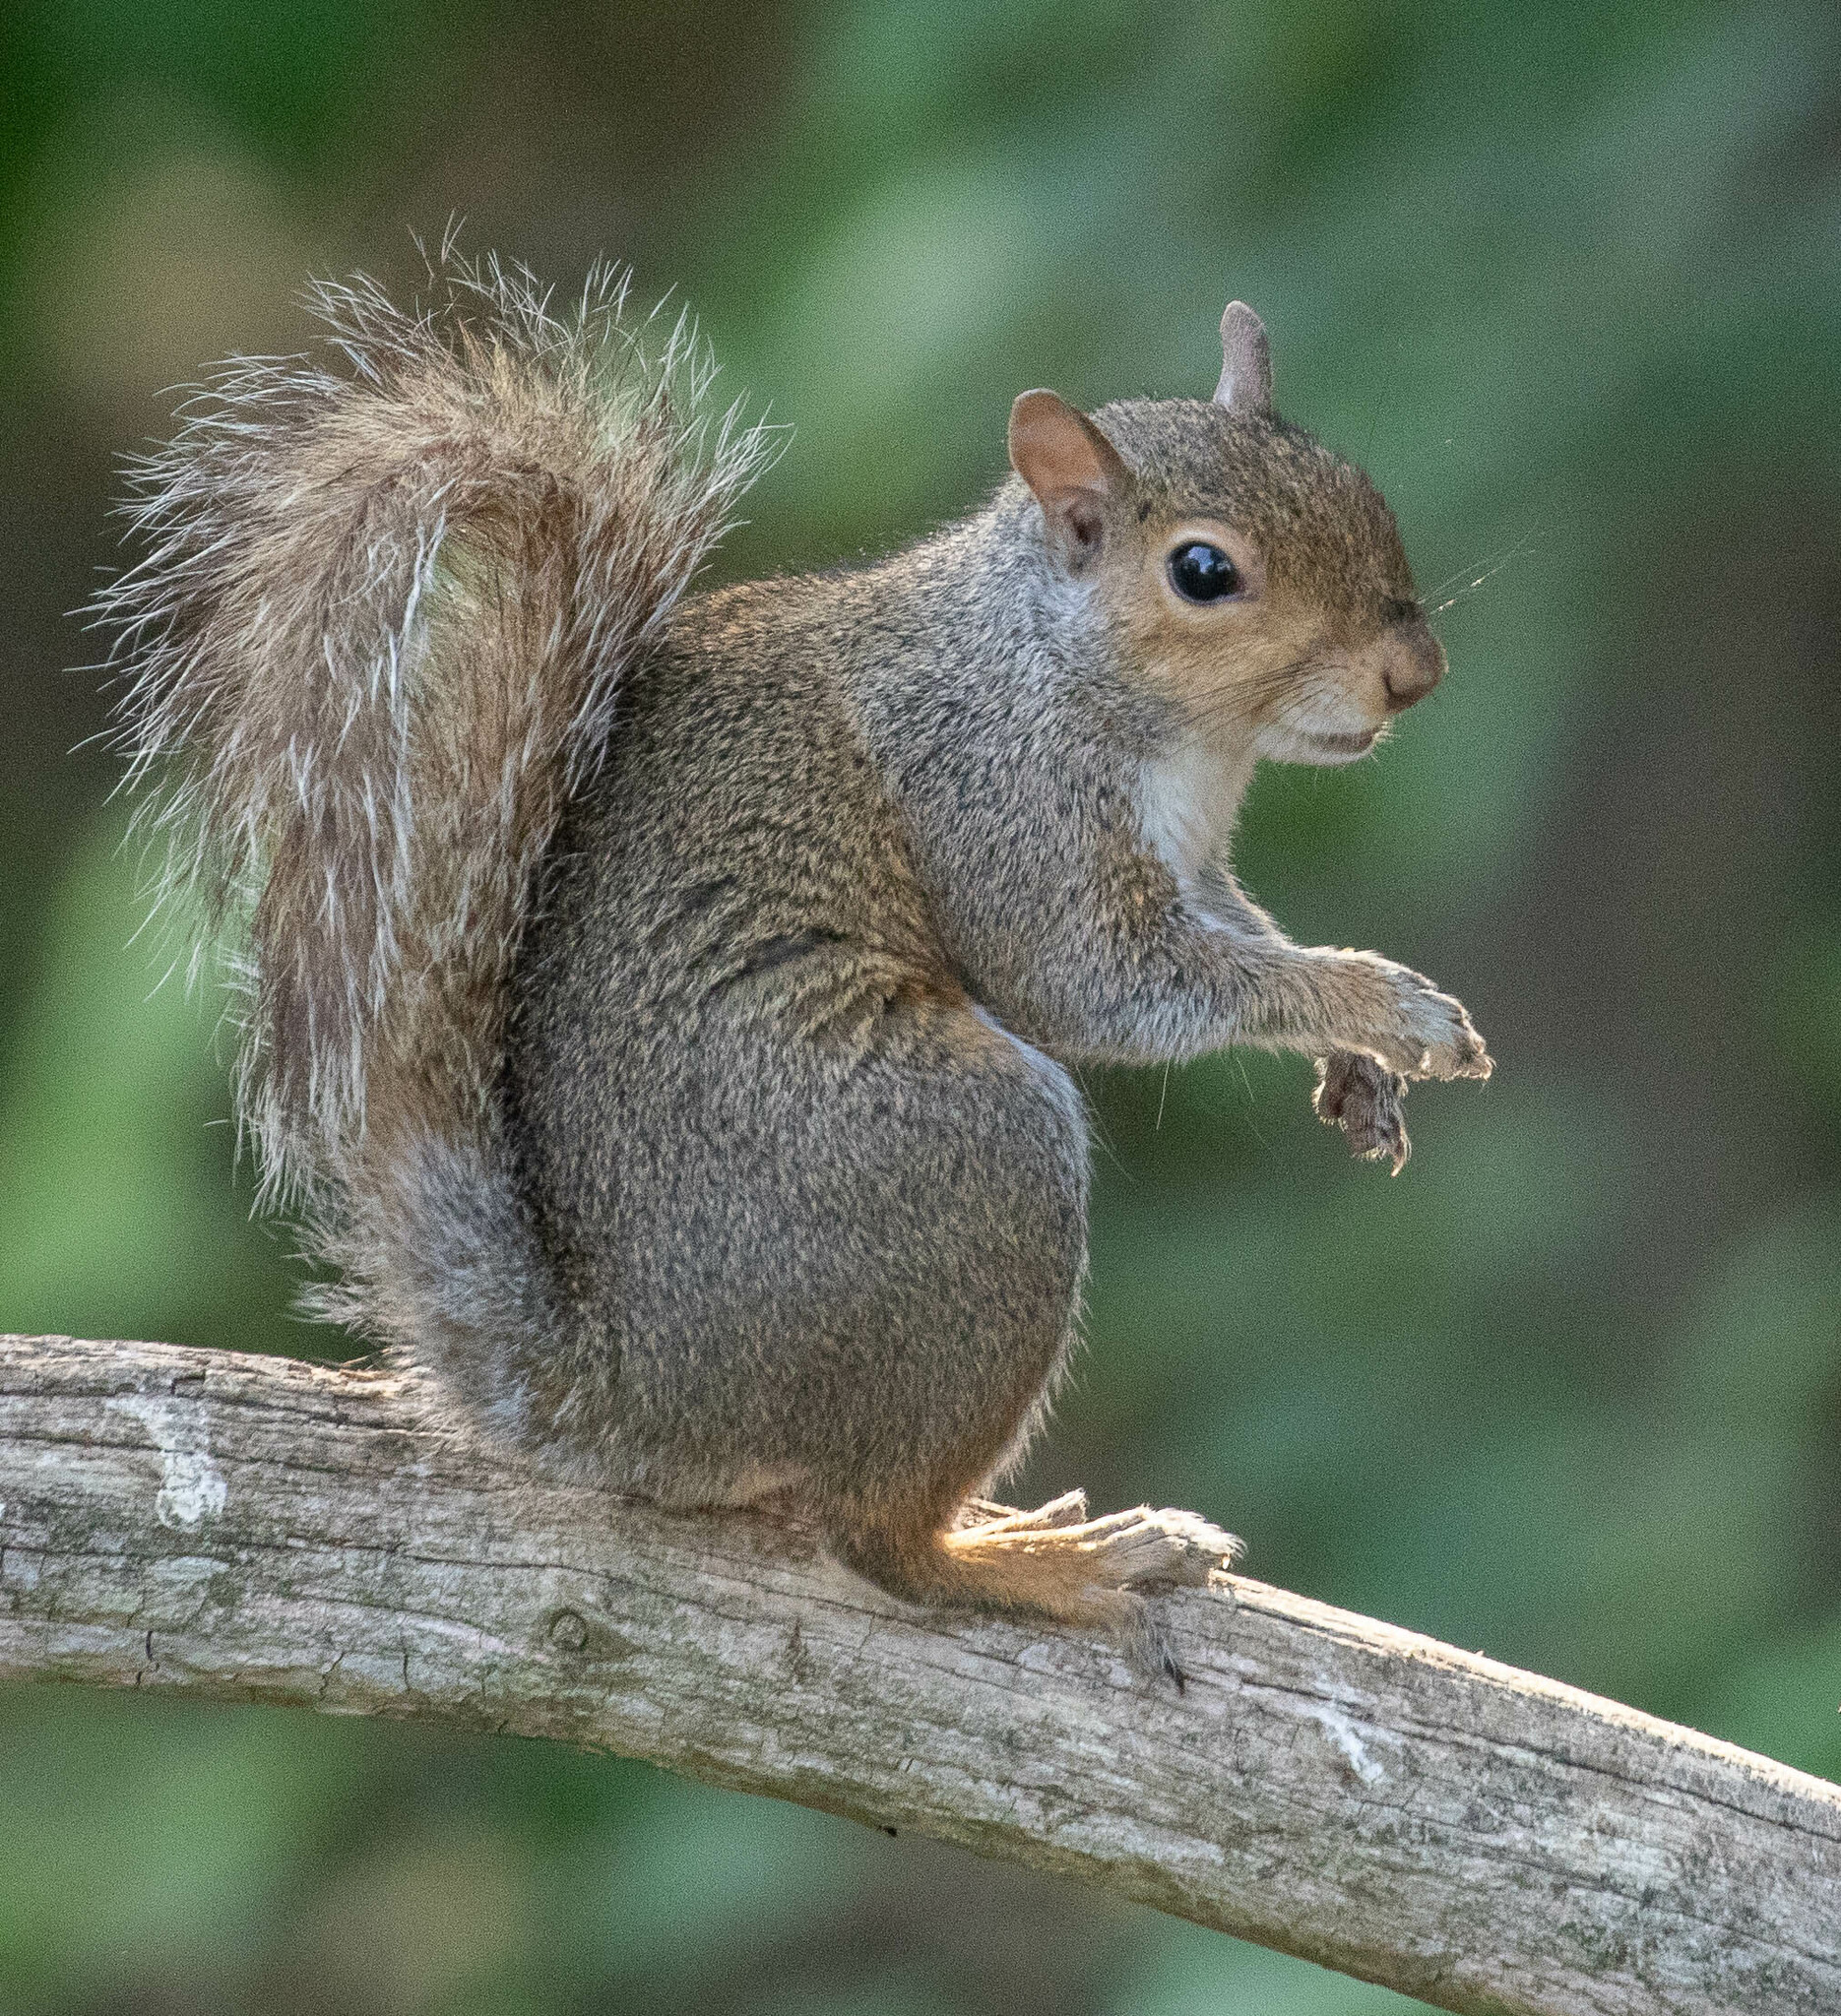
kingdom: Animalia
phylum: Chordata
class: Mammalia
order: Rodentia
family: Sciuridae
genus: Sciurus
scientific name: Sciurus carolinensis
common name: Eastern gray squirrel
